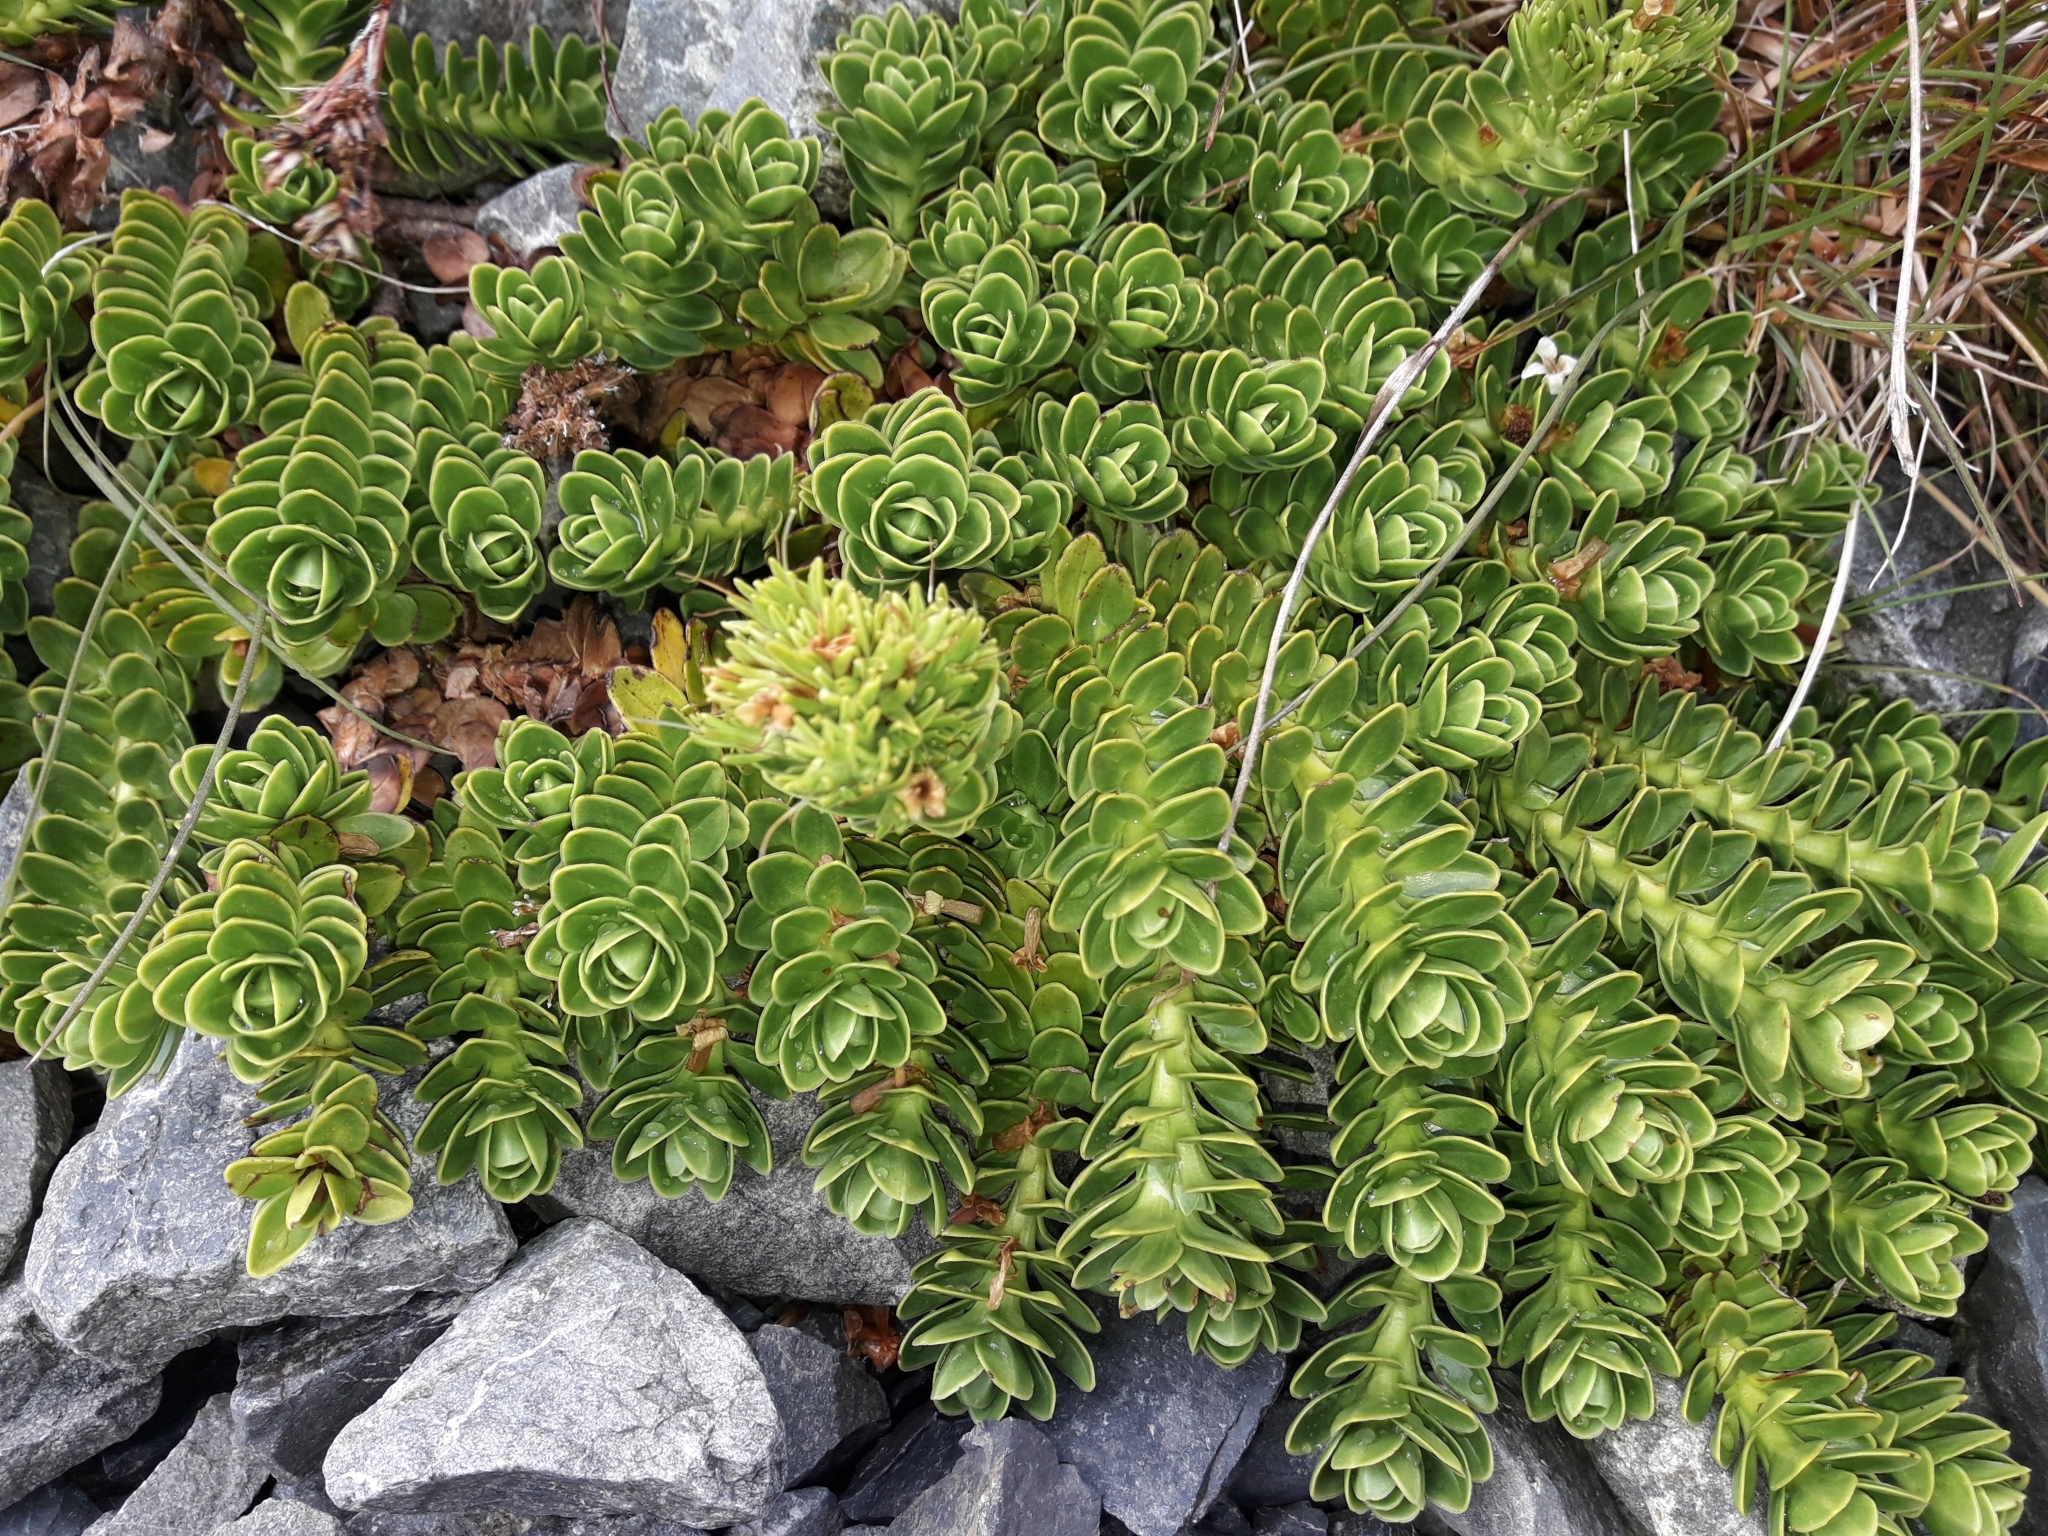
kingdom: Plantae
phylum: Tracheophyta
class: Magnoliopsida
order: Lamiales
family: Plantaginaceae
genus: Veronica
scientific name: Veronica macrocalyx
